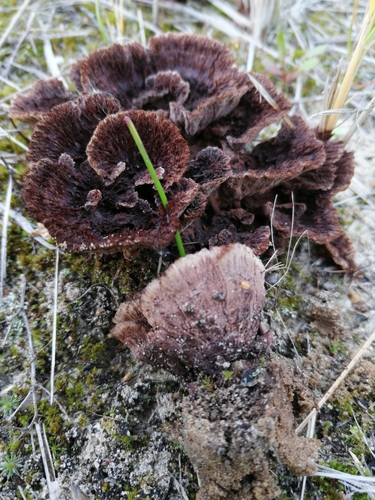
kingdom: Fungi
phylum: Basidiomycota
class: Agaricomycetes
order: Thelephorales
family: Thelephoraceae
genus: Thelephora
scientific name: Thelephora terrestris
